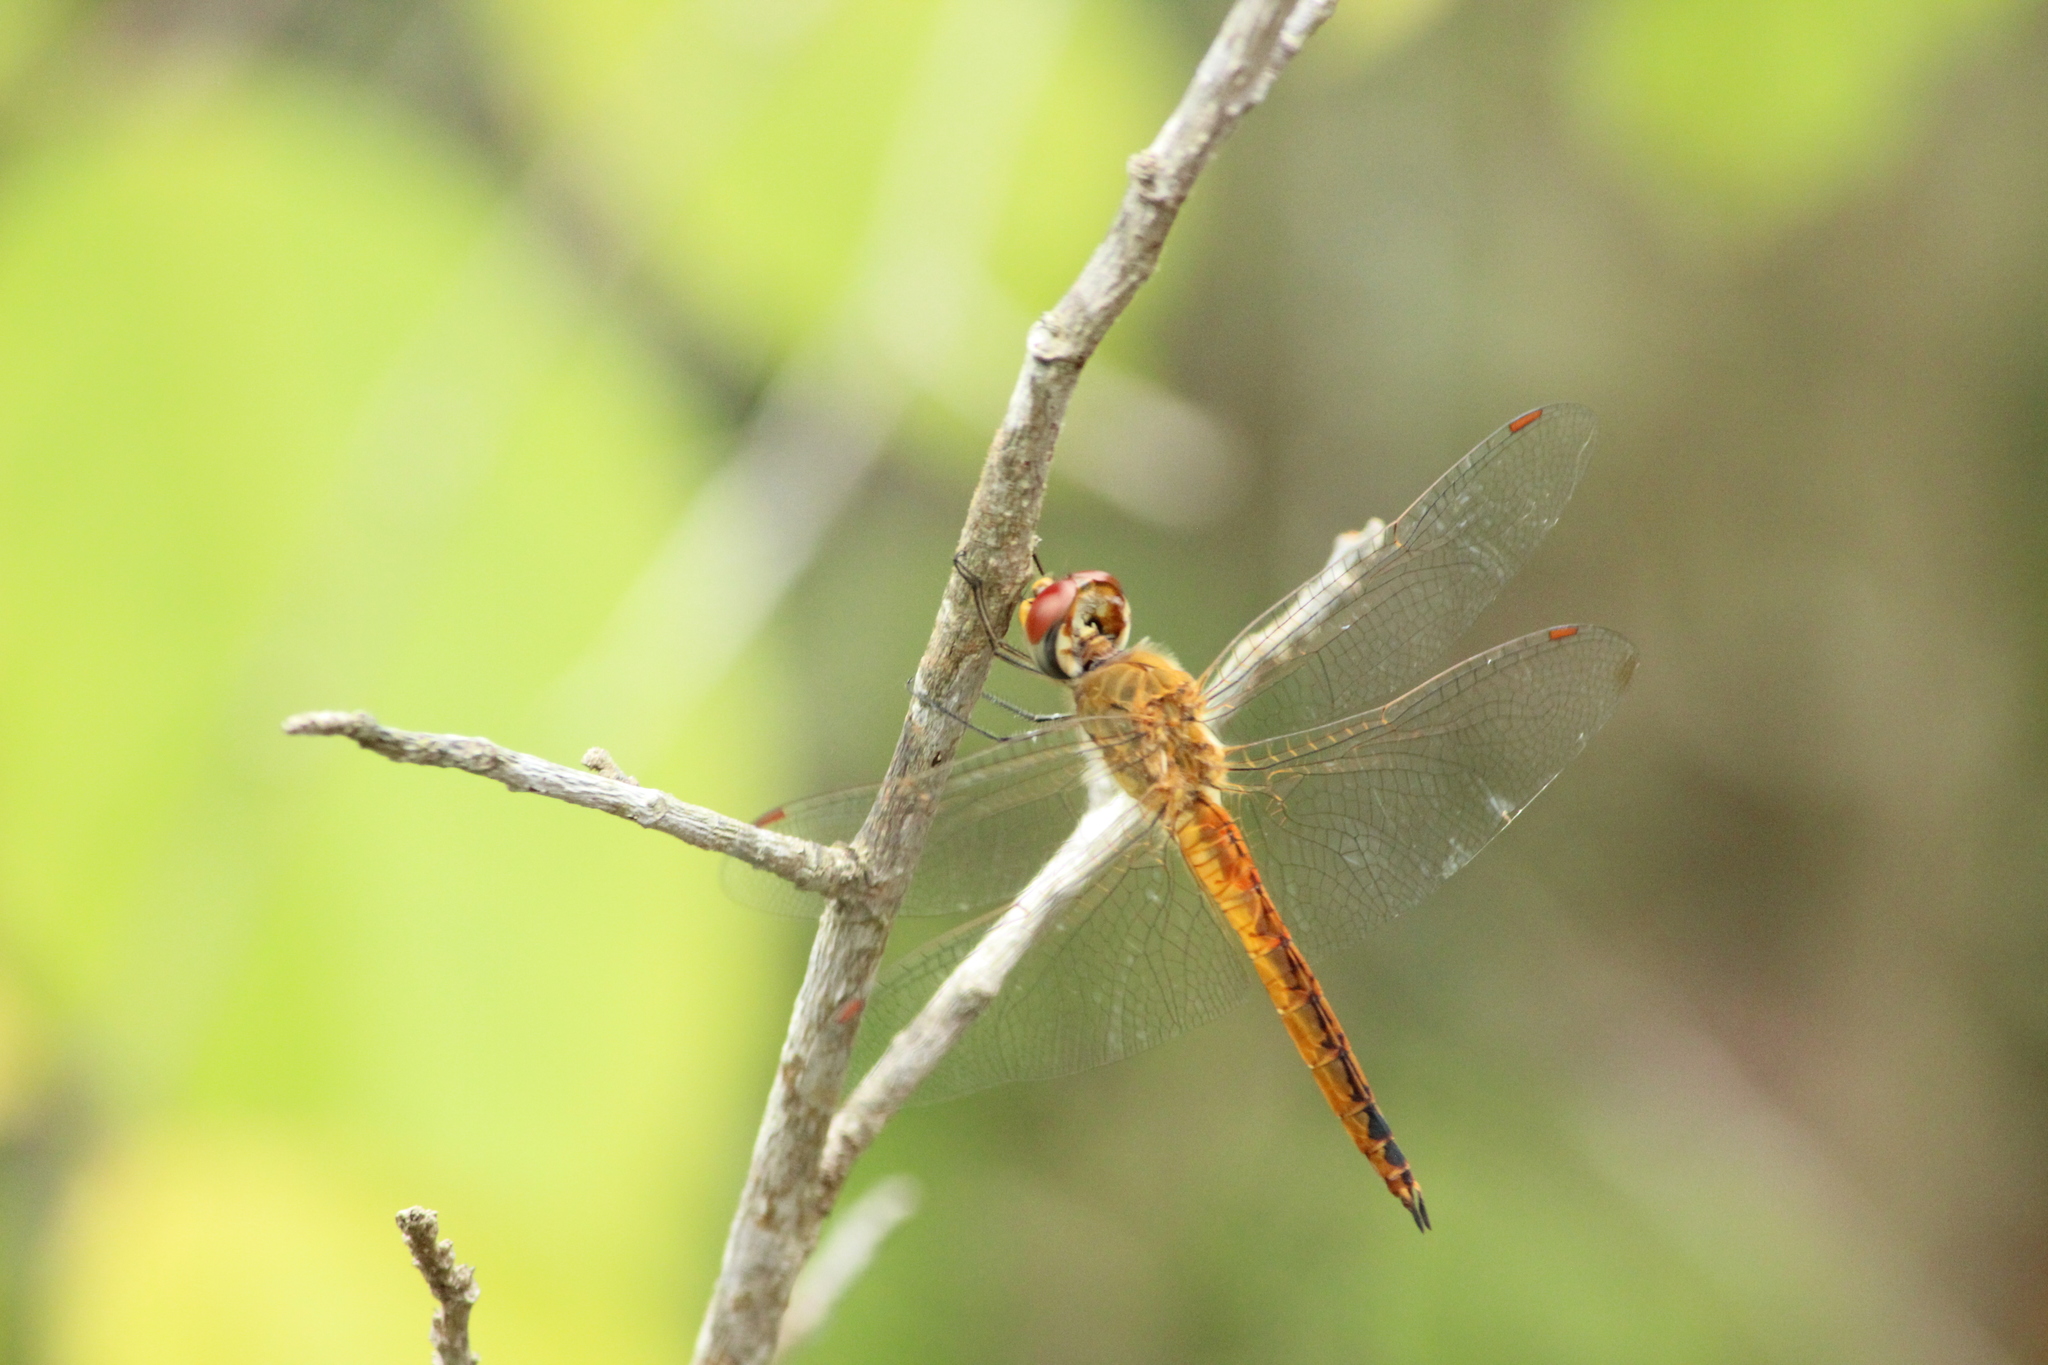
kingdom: Animalia
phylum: Arthropoda
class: Insecta
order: Odonata
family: Libellulidae
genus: Pantala
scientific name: Pantala flavescens
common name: Wandering glider
